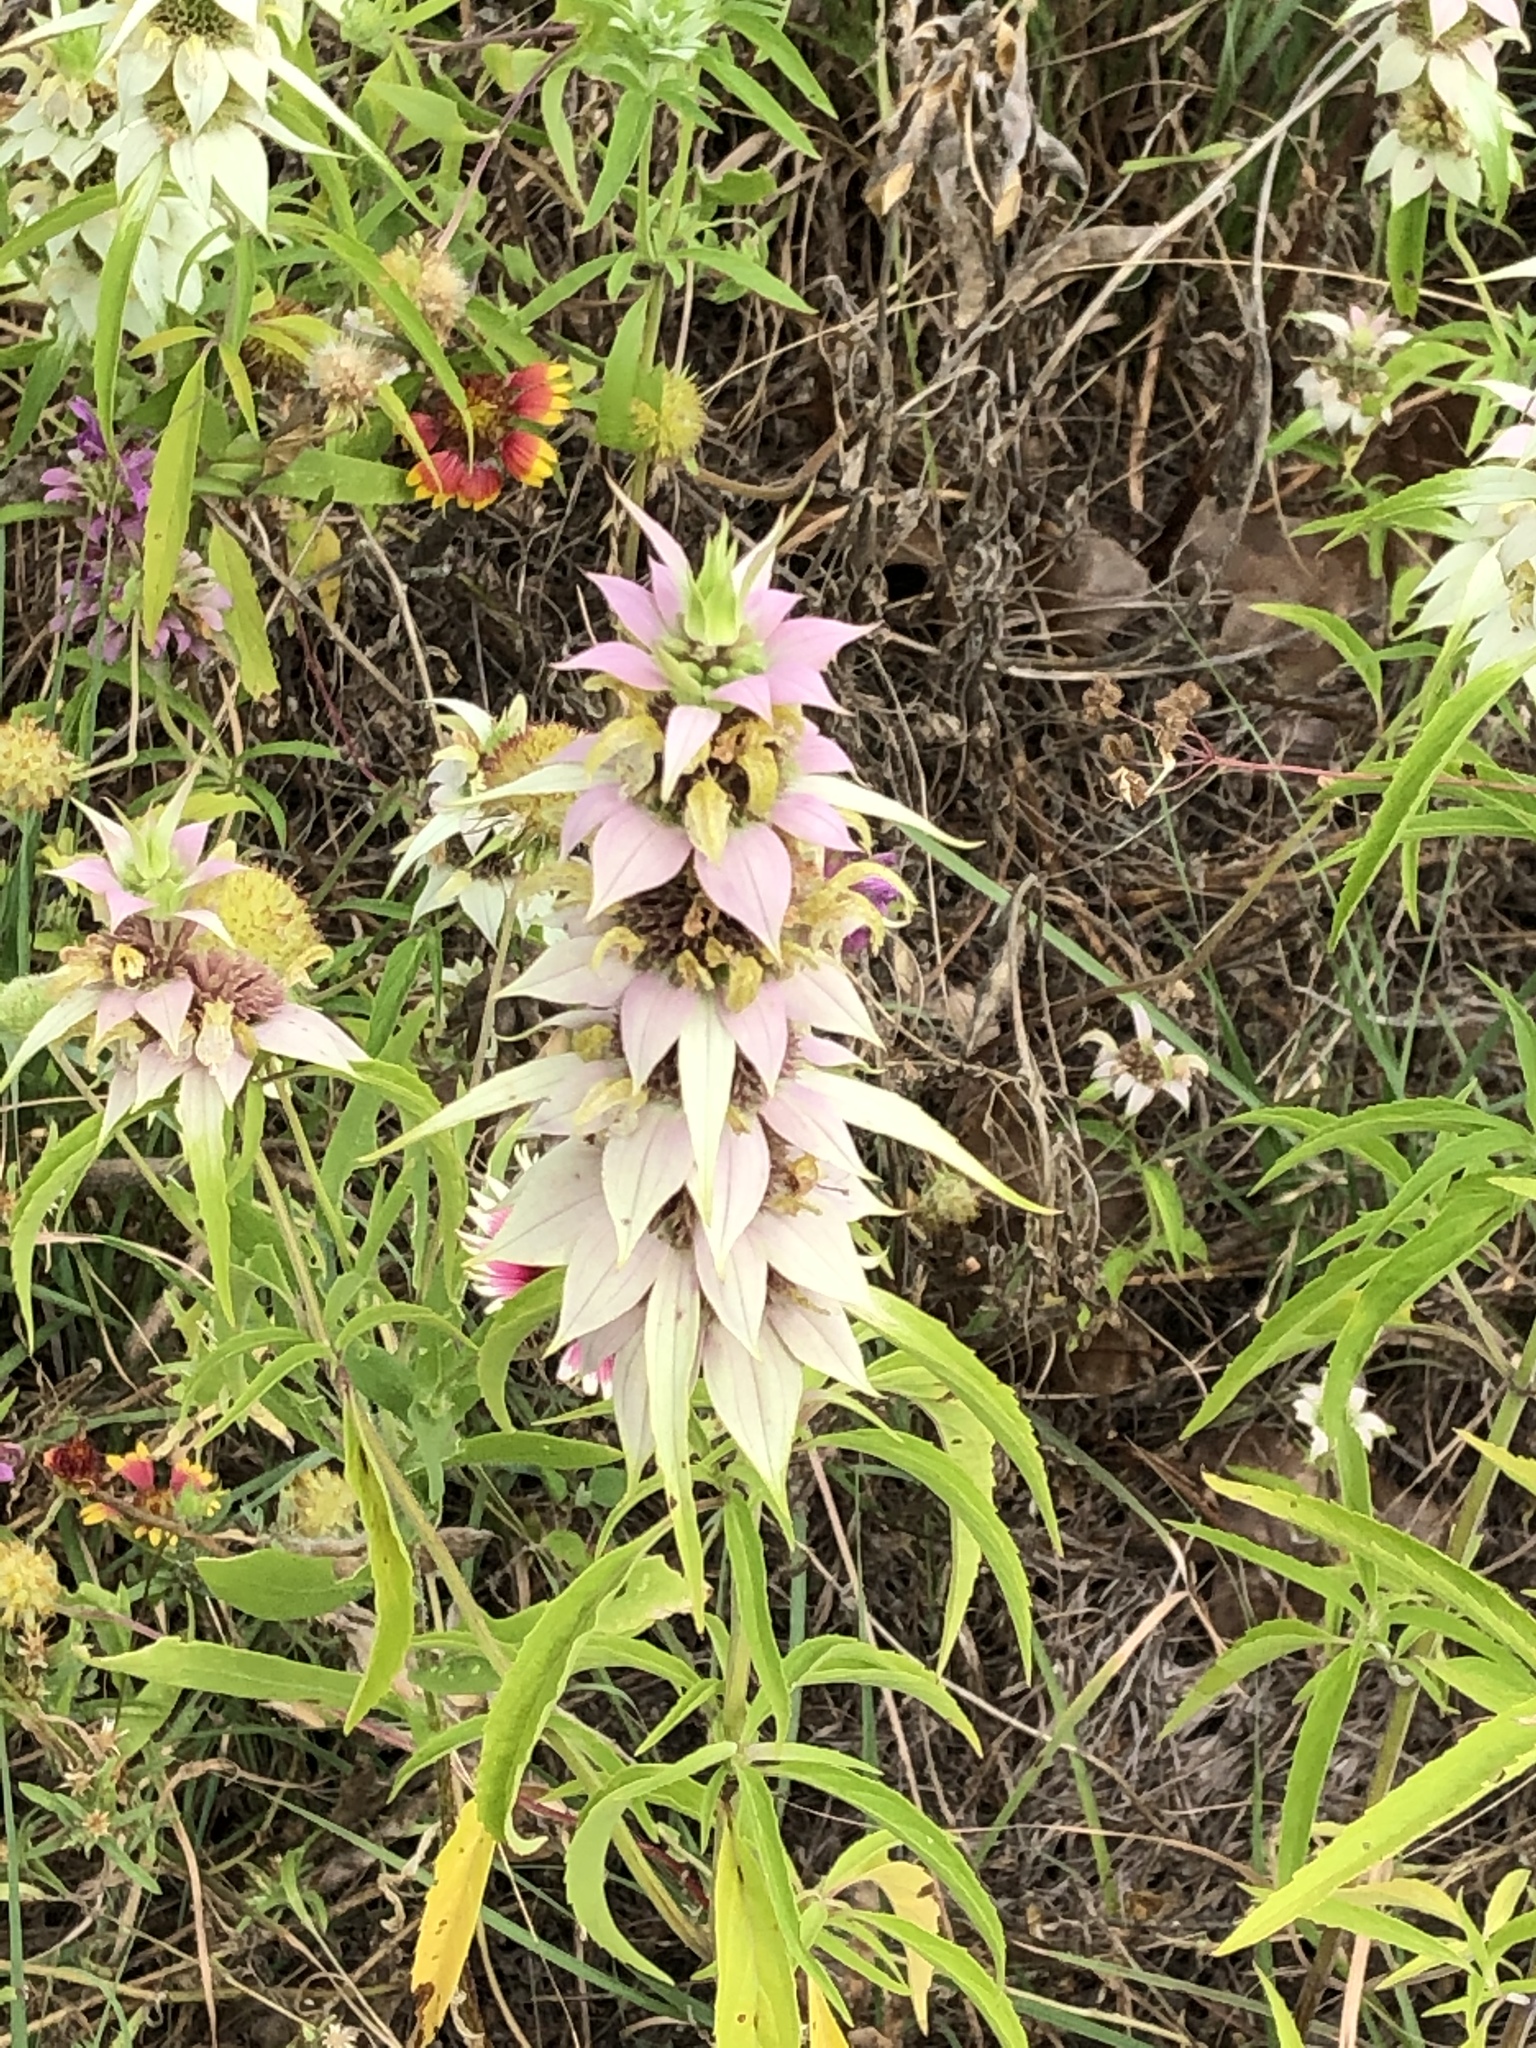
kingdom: Plantae
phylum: Tracheophyta
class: Magnoliopsida
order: Lamiales
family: Lamiaceae
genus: Monarda
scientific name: Monarda punctata
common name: Dotted monarda
